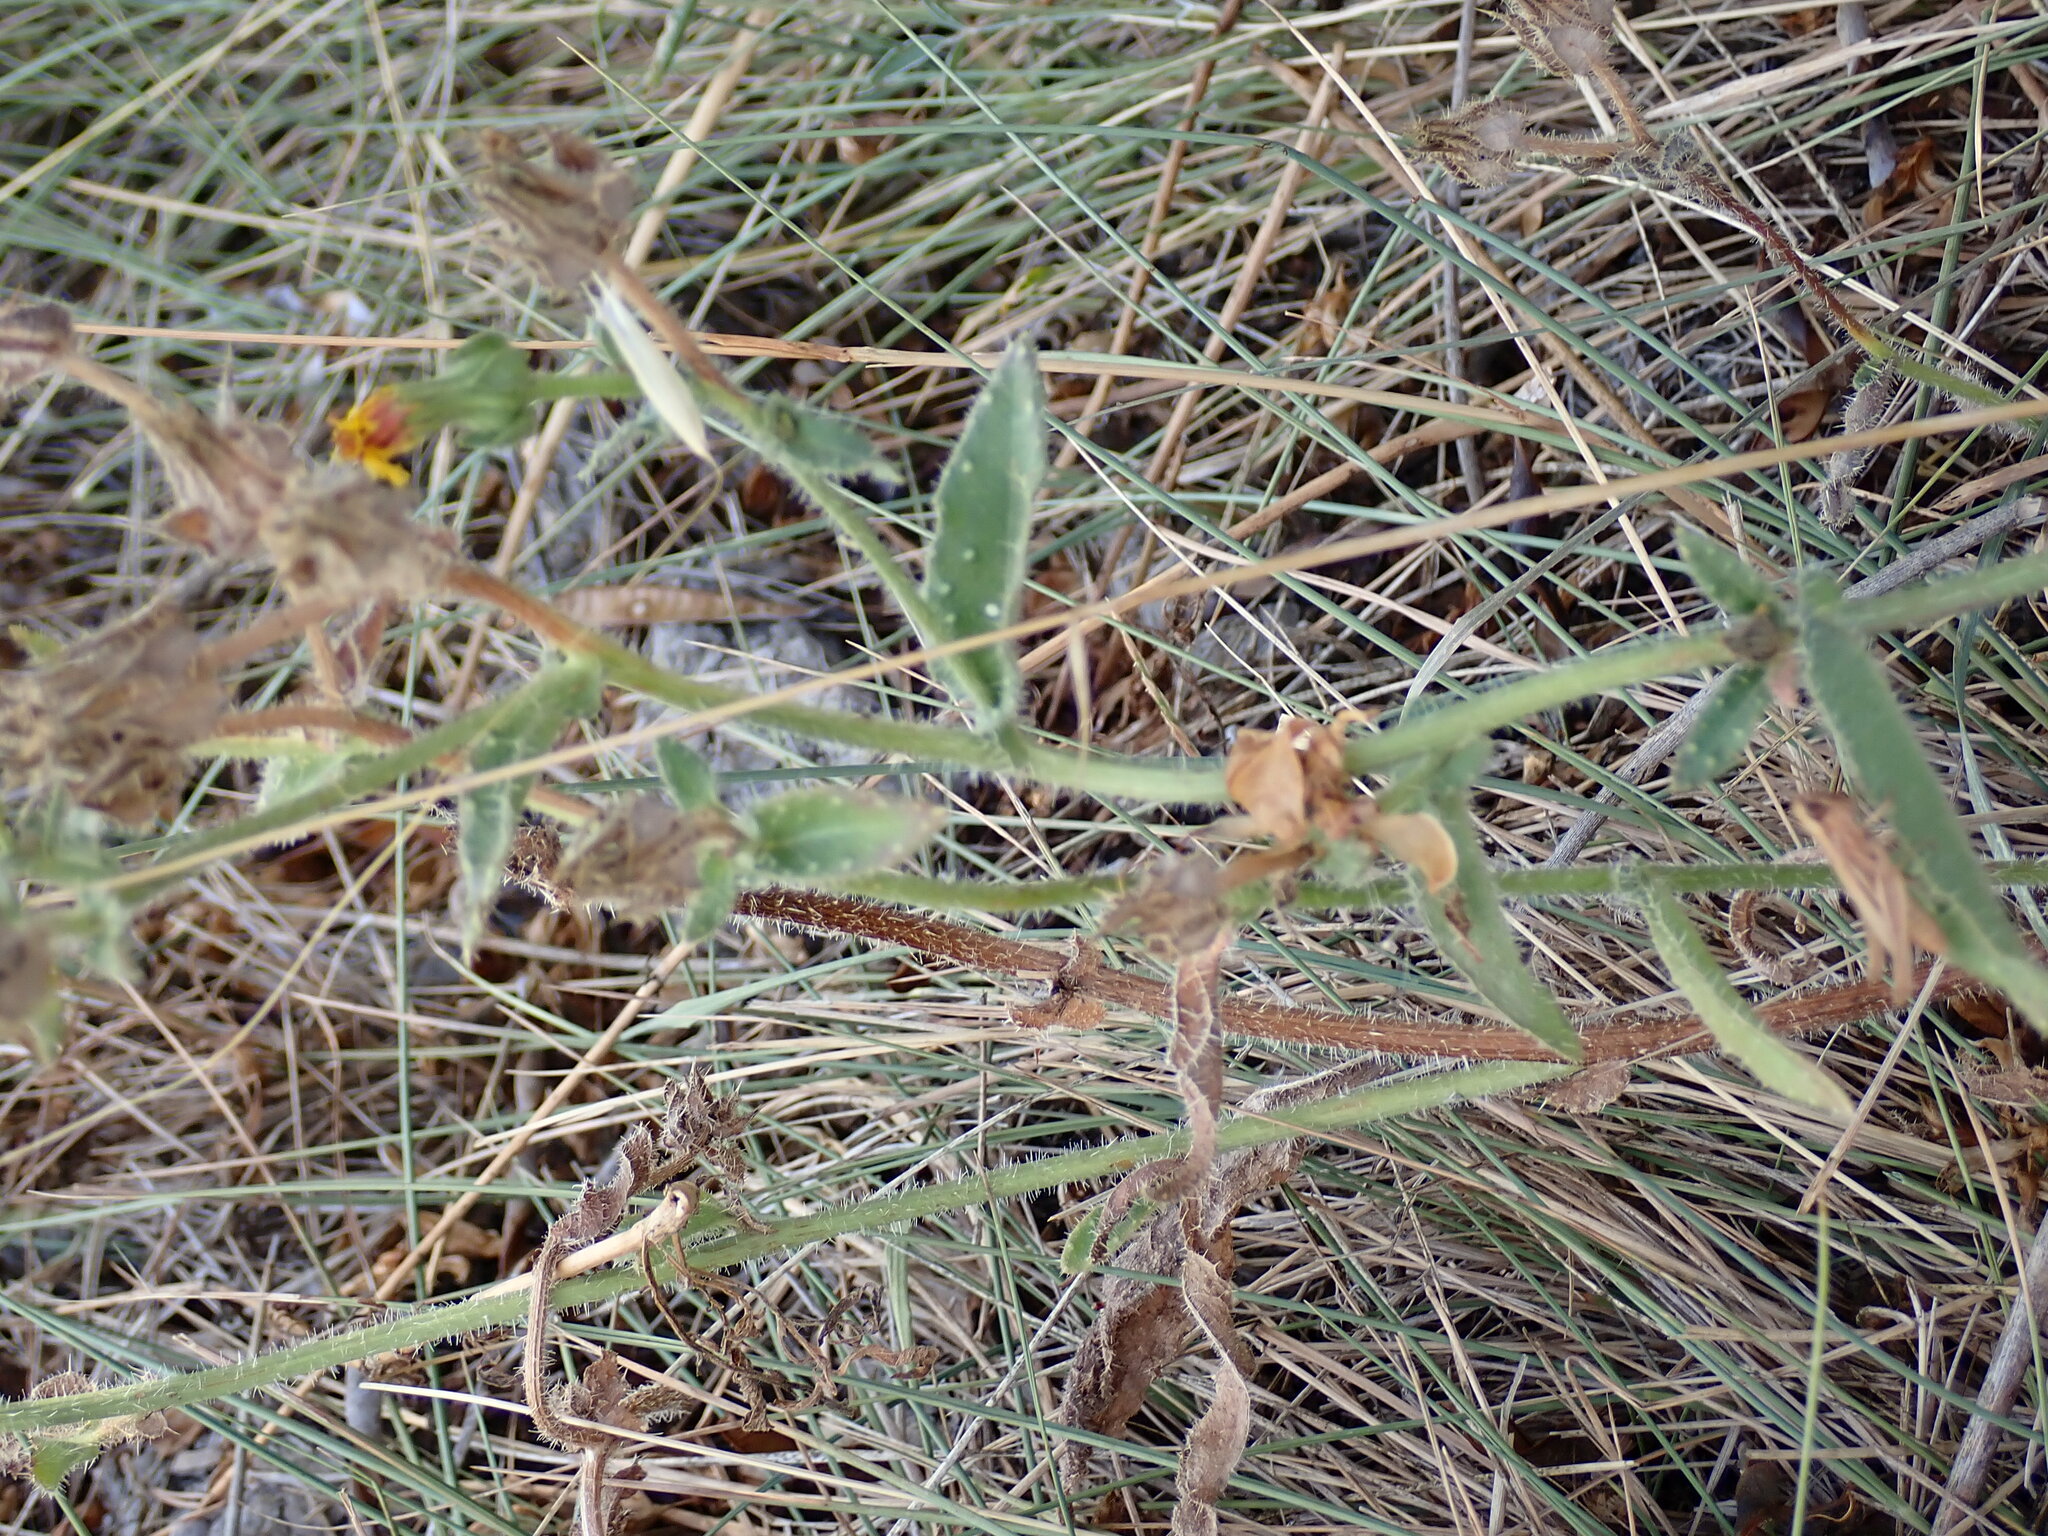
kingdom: Plantae
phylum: Tracheophyta
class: Magnoliopsida
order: Asterales
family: Asteraceae
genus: Helminthotheca
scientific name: Helminthotheca echioides
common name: Ox-tongue
